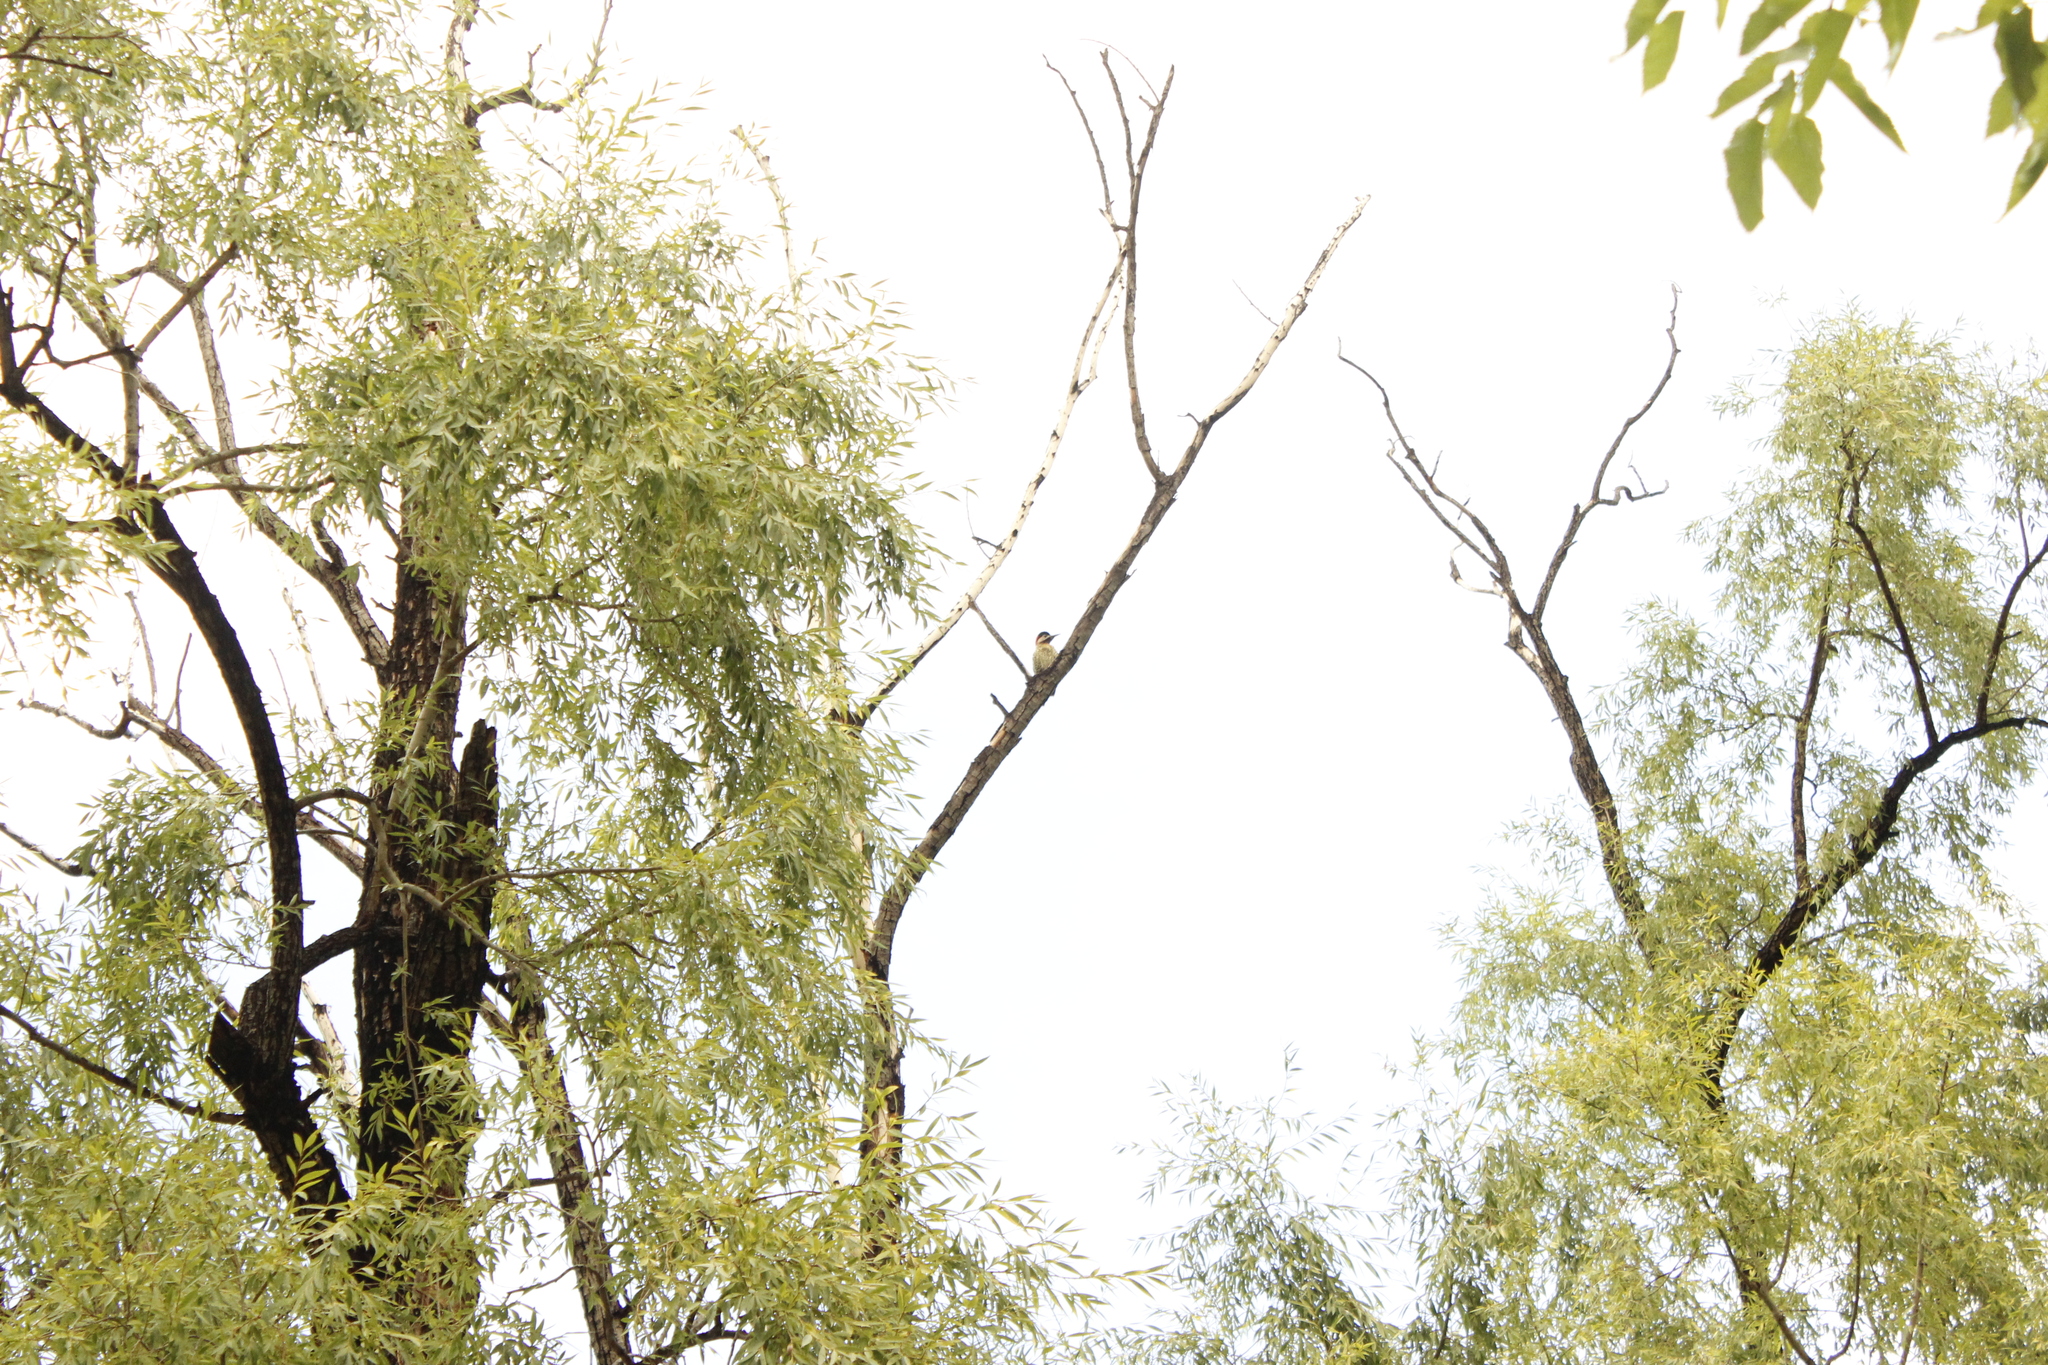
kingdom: Animalia
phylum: Chordata
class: Aves
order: Piciformes
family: Picidae
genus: Colaptes
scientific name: Colaptes melanochloros
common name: Green-barred woodpecker
